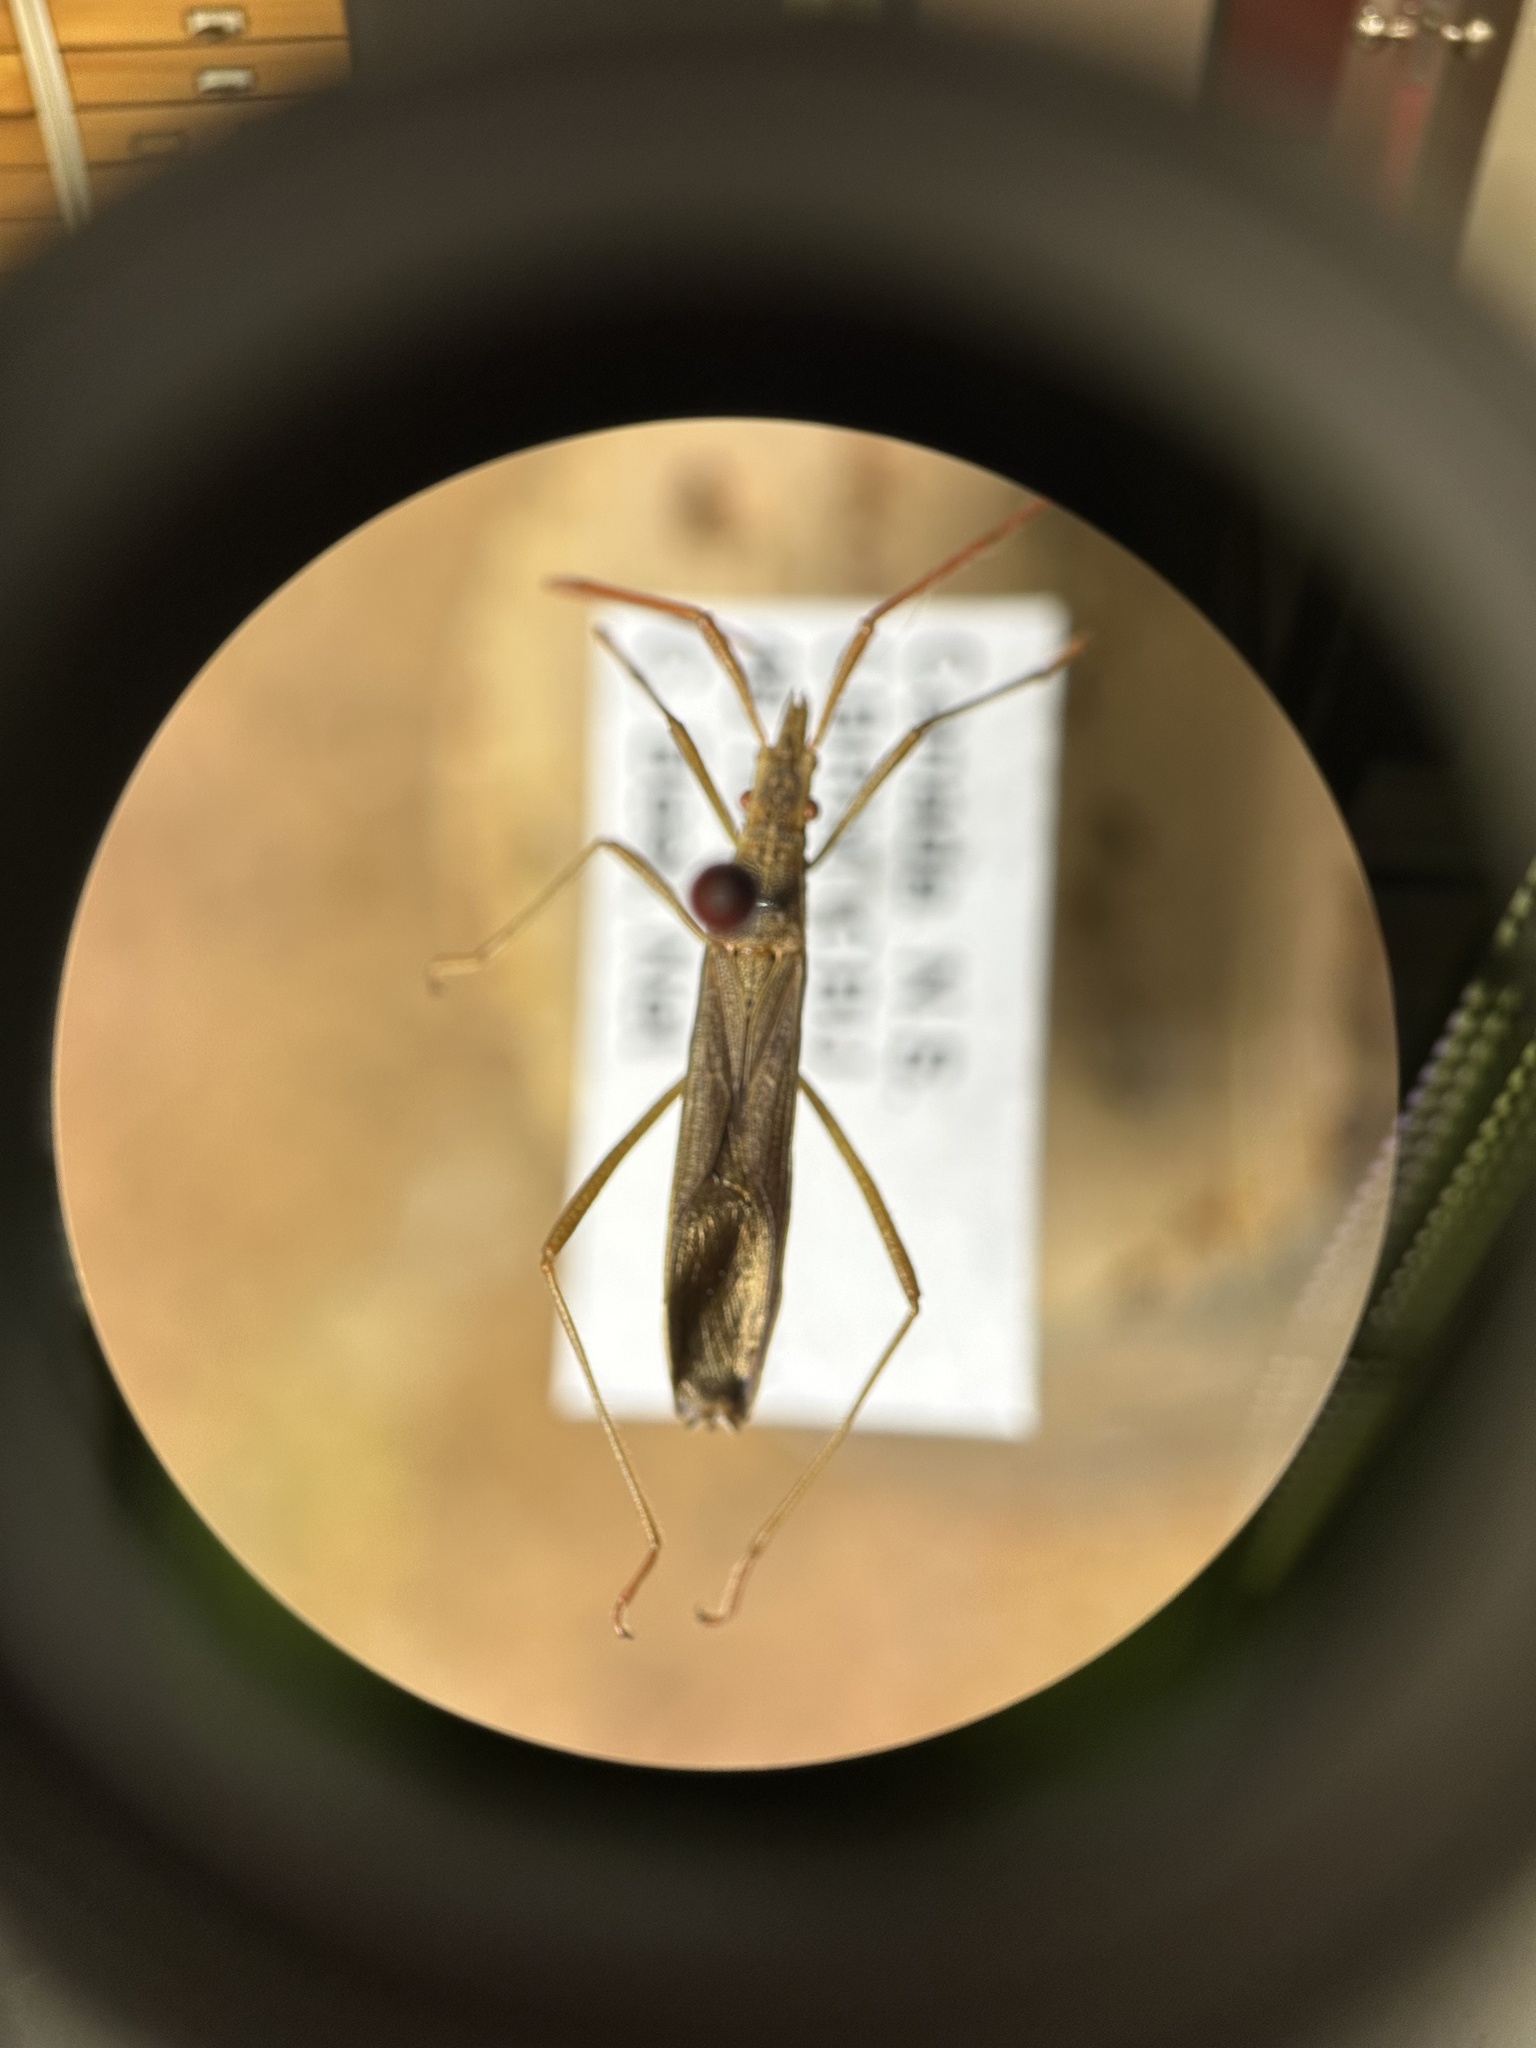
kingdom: Animalia
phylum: Arthropoda
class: Insecta
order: Hemiptera
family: Alydidae
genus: Protenor
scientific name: Protenor belfragei
